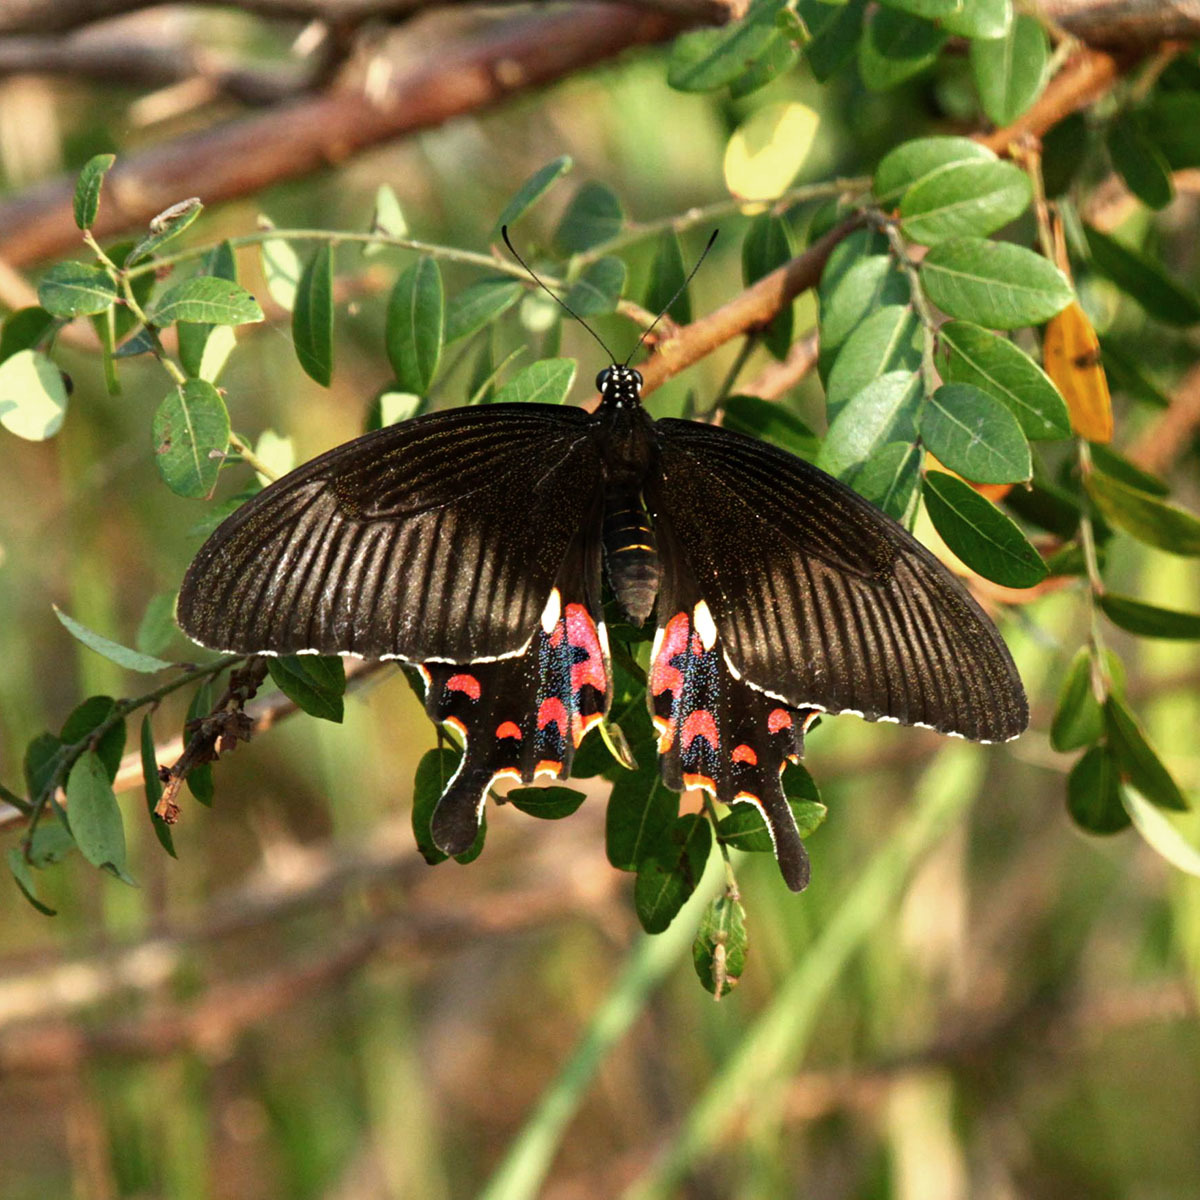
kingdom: Animalia
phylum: Arthropoda
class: Insecta
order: Lepidoptera
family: Papilionidae
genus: Papilio
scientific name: Papilio polytes
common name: Common mormon
